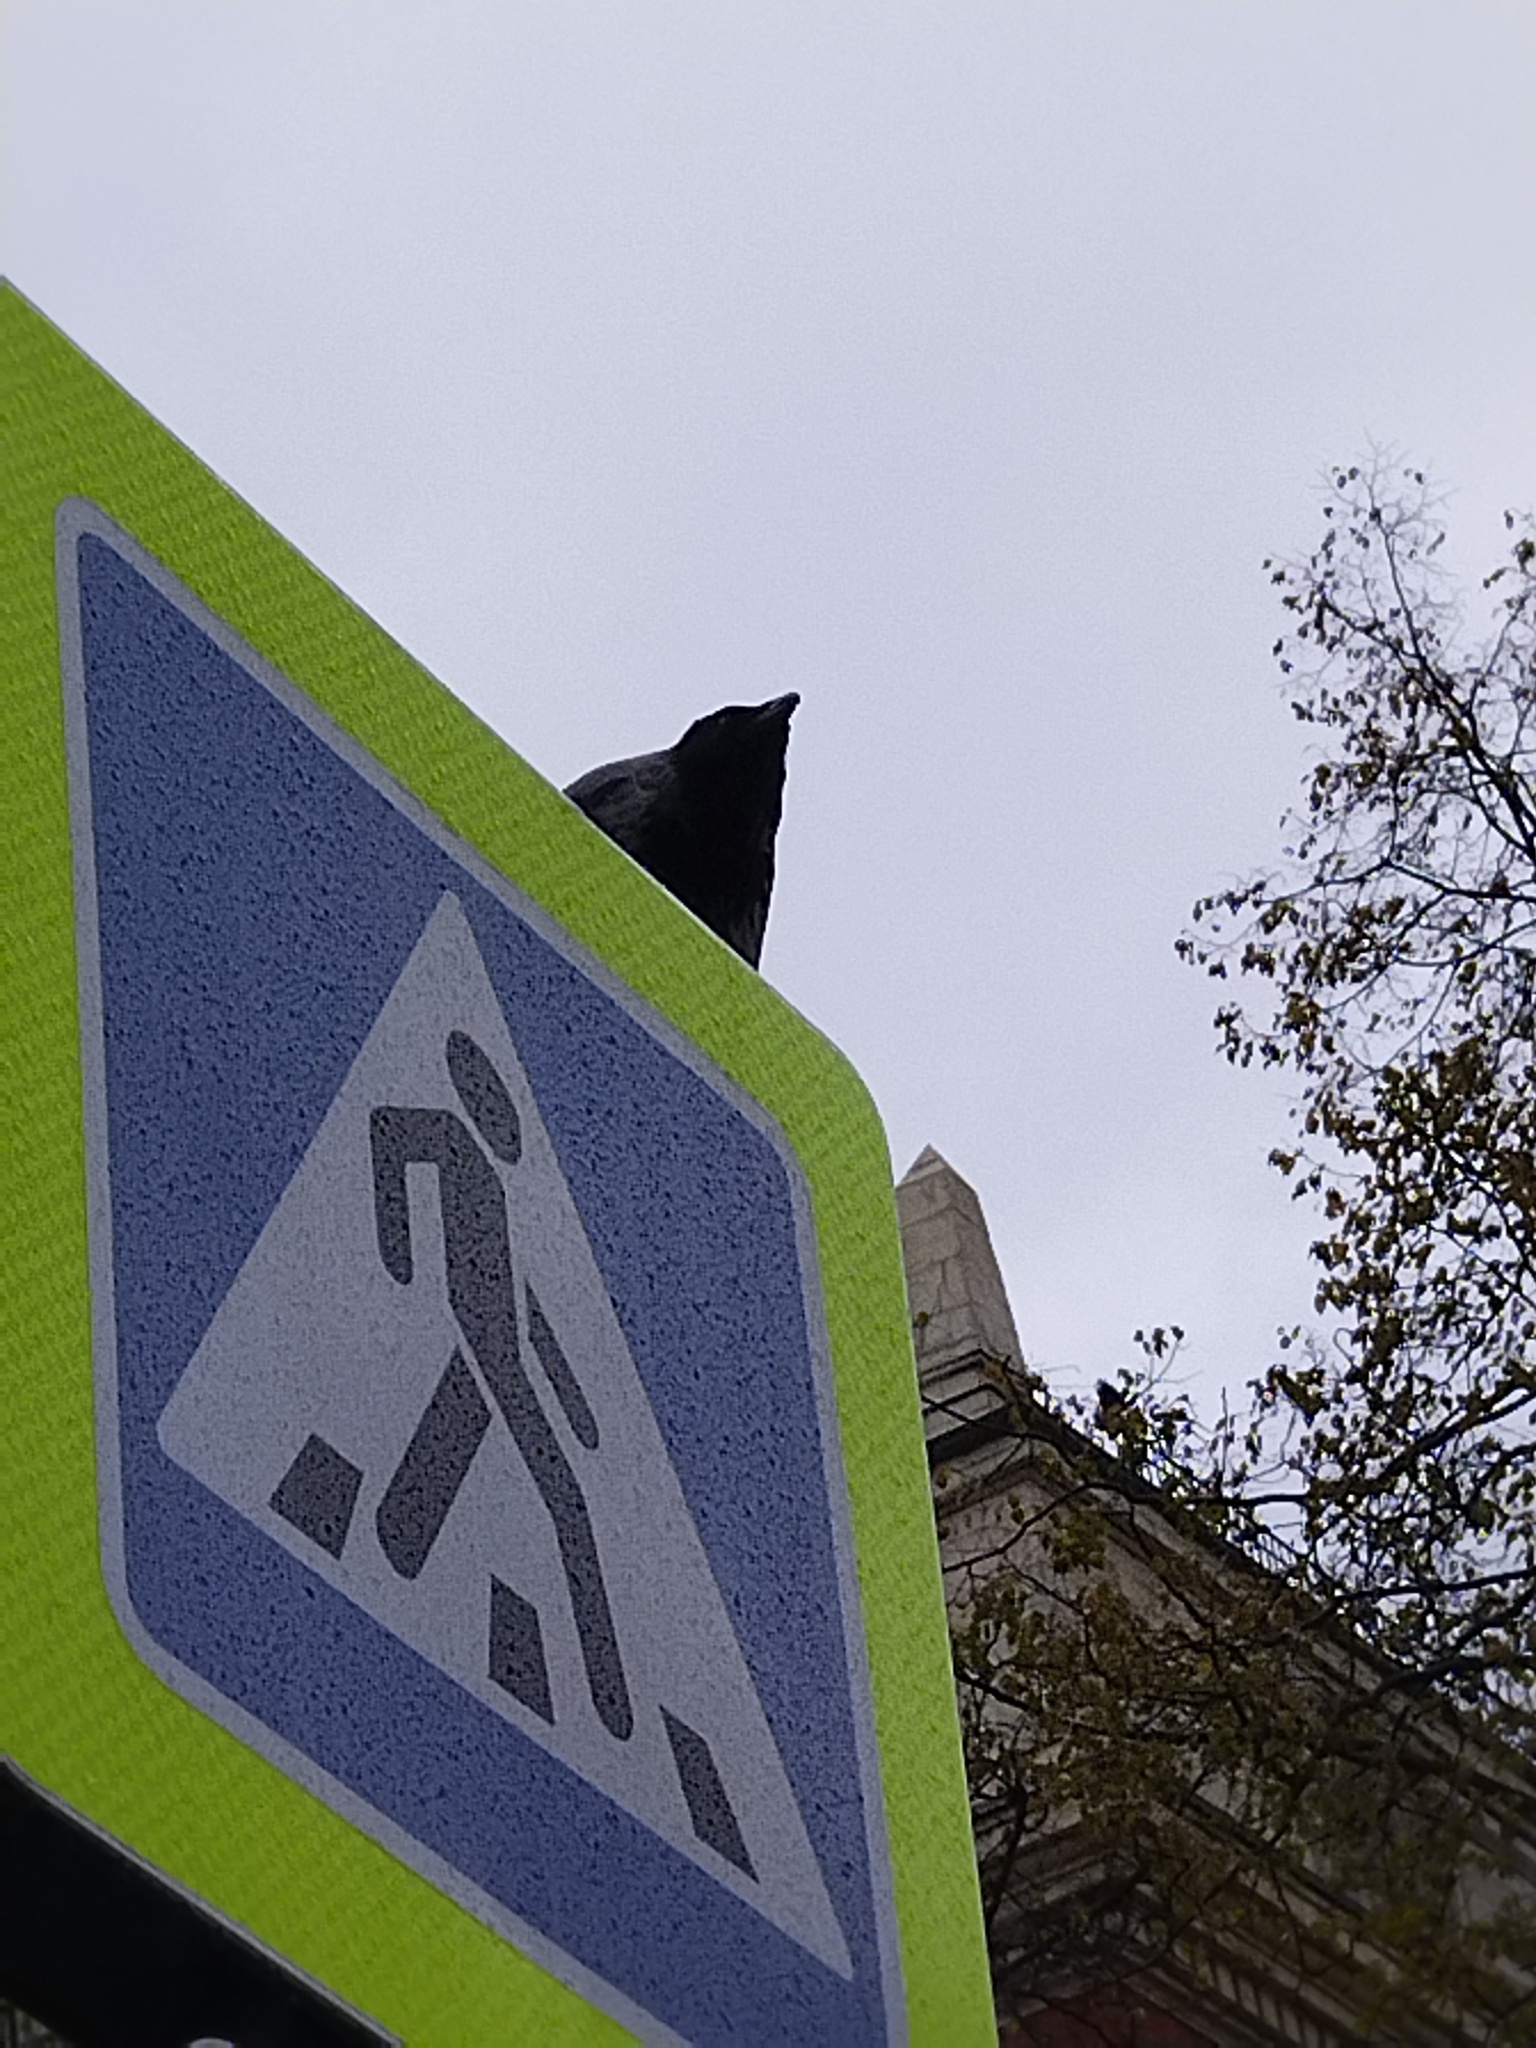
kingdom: Animalia
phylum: Chordata
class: Aves
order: Passeriformes
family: Corvidae
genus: Corvus
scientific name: Corvus cornix
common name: Hooded crow
